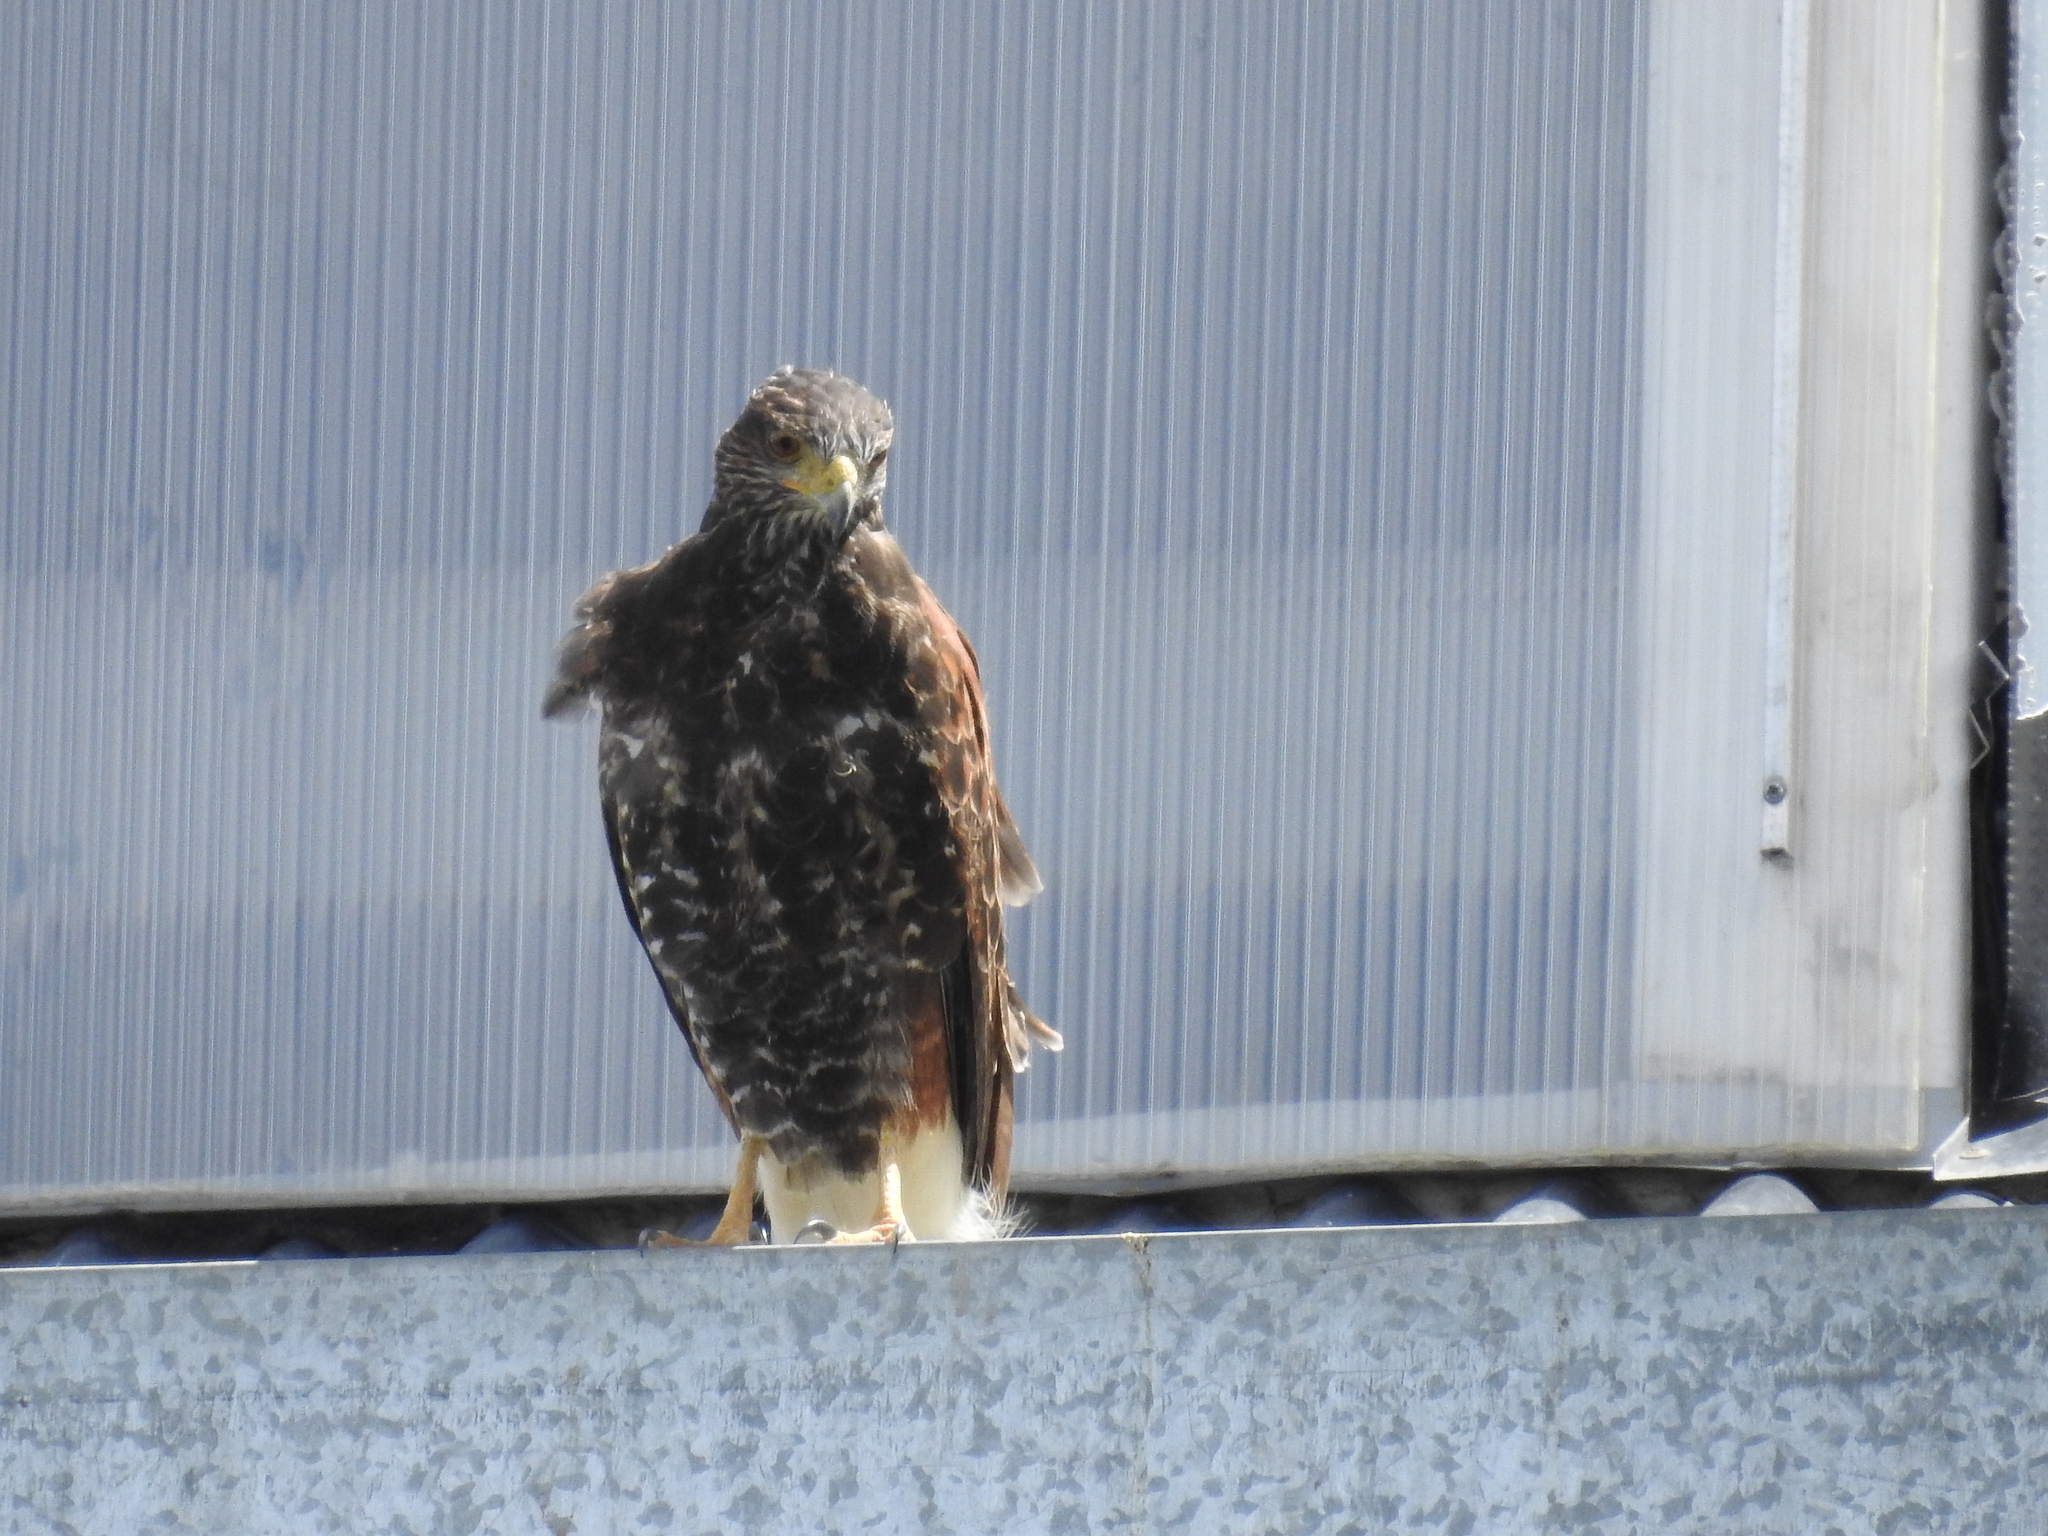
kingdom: Animalia
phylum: Chordata
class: Aves
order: Accipitriformes
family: Accipitridae
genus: Parabuteo
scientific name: Parabuteo unicinctus
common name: Harris's hawk
